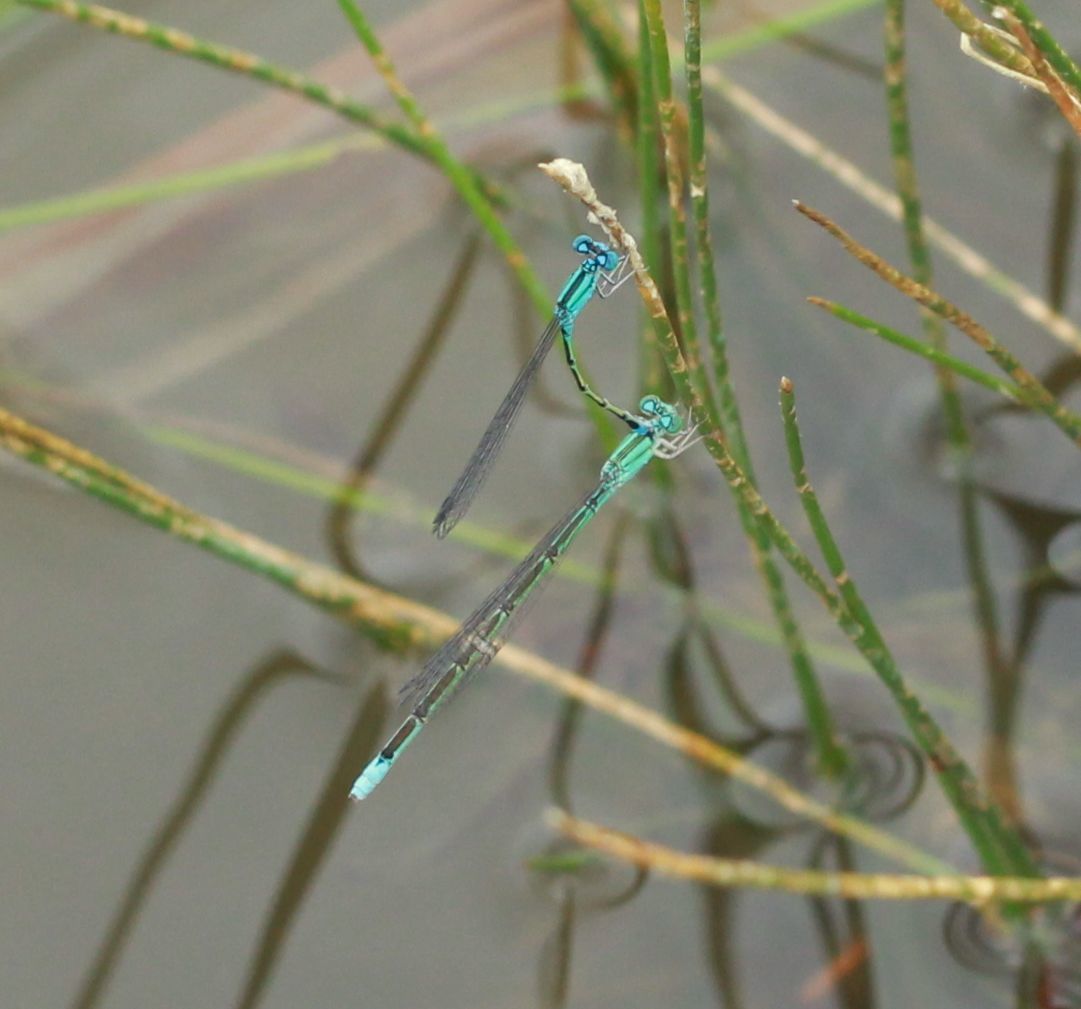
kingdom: Animalia
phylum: Arthropoda
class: Insecta
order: Odonata
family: Coenagrionidae
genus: Enallagma
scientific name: Enallagma traviatum
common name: Slender bluet
